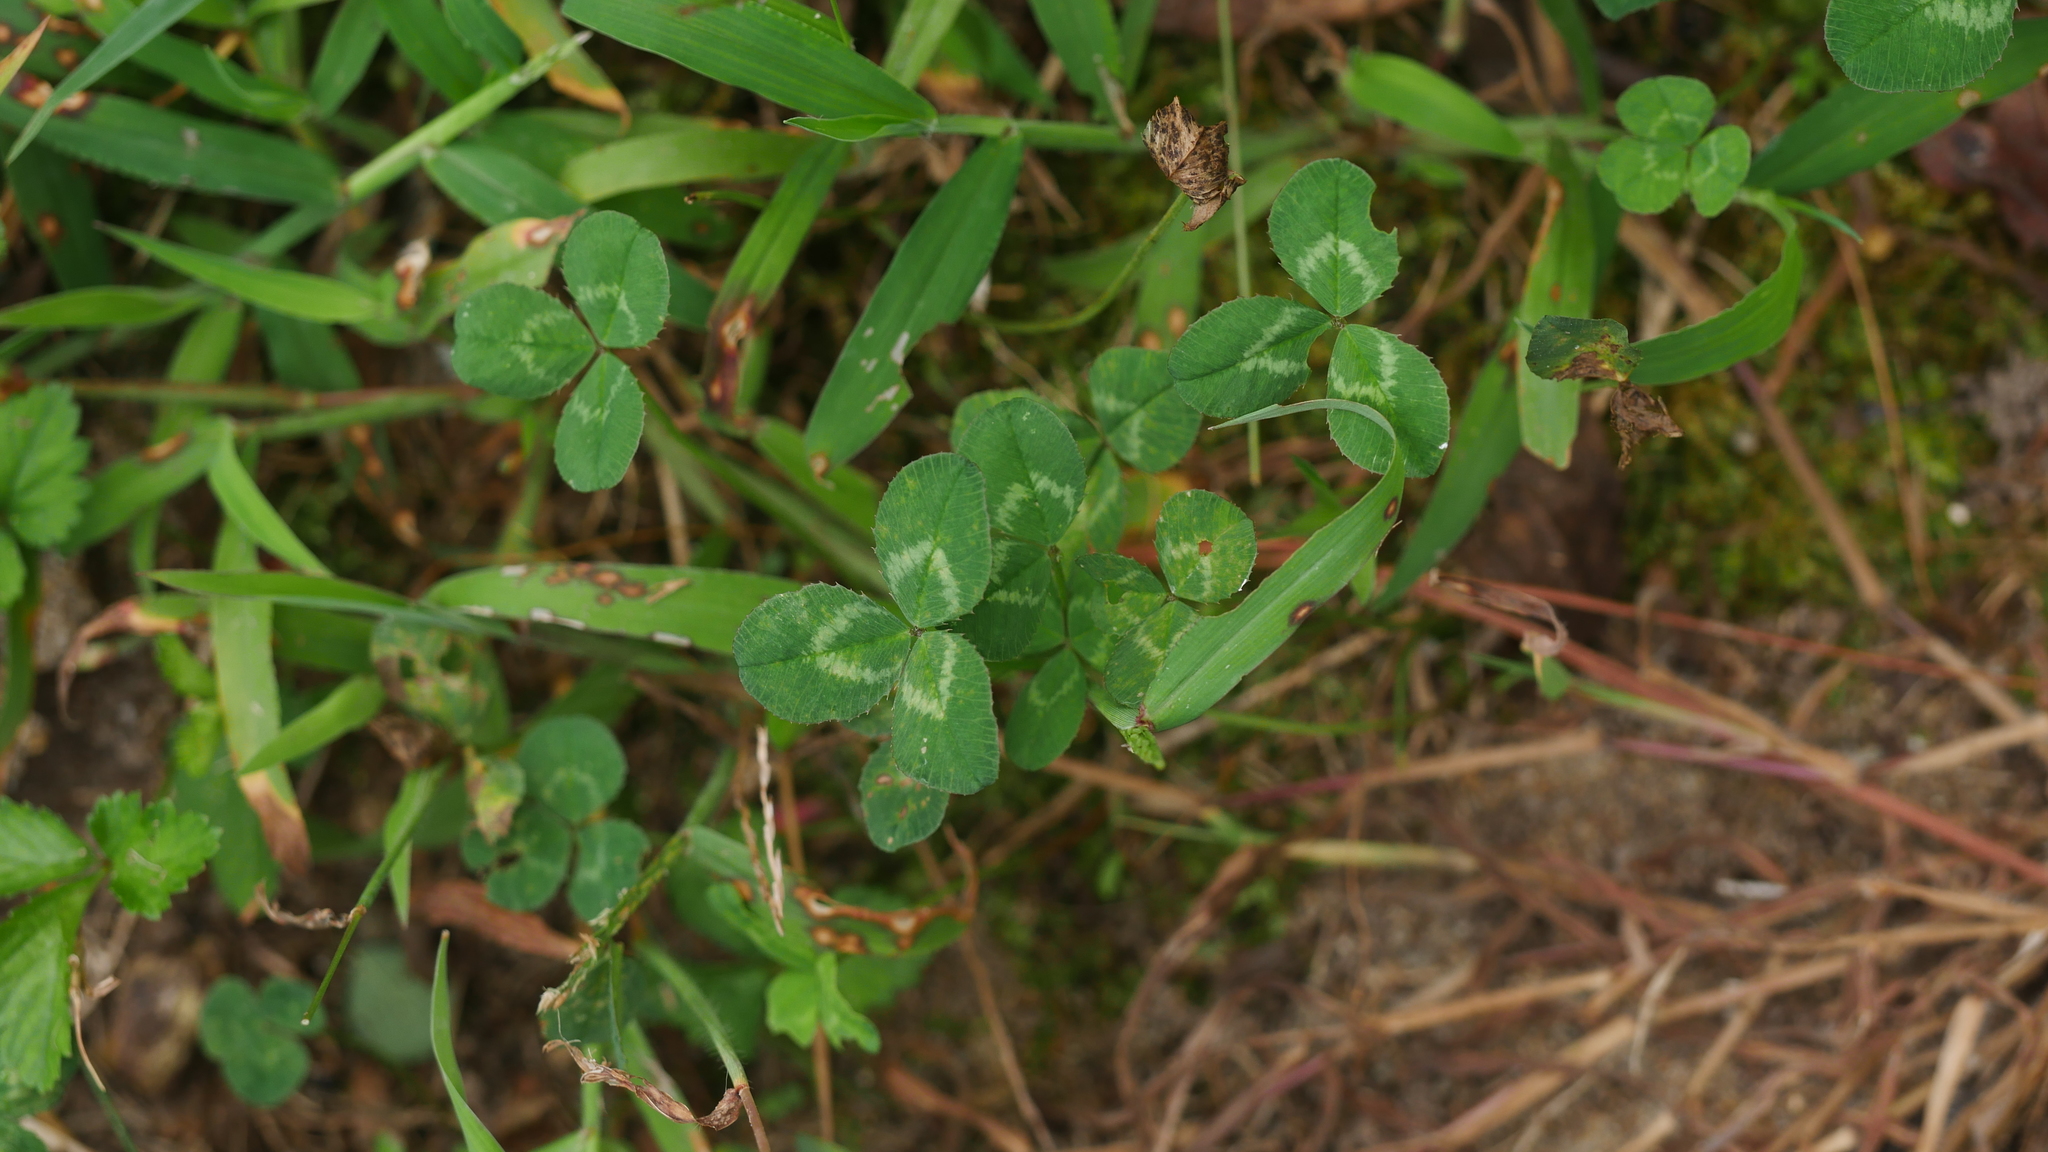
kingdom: Plantae
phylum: Tracheophyta
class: Magnoliopsida
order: Fabales
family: Fabaceae
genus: Trifolium
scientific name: Trifolium repens
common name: White clover
